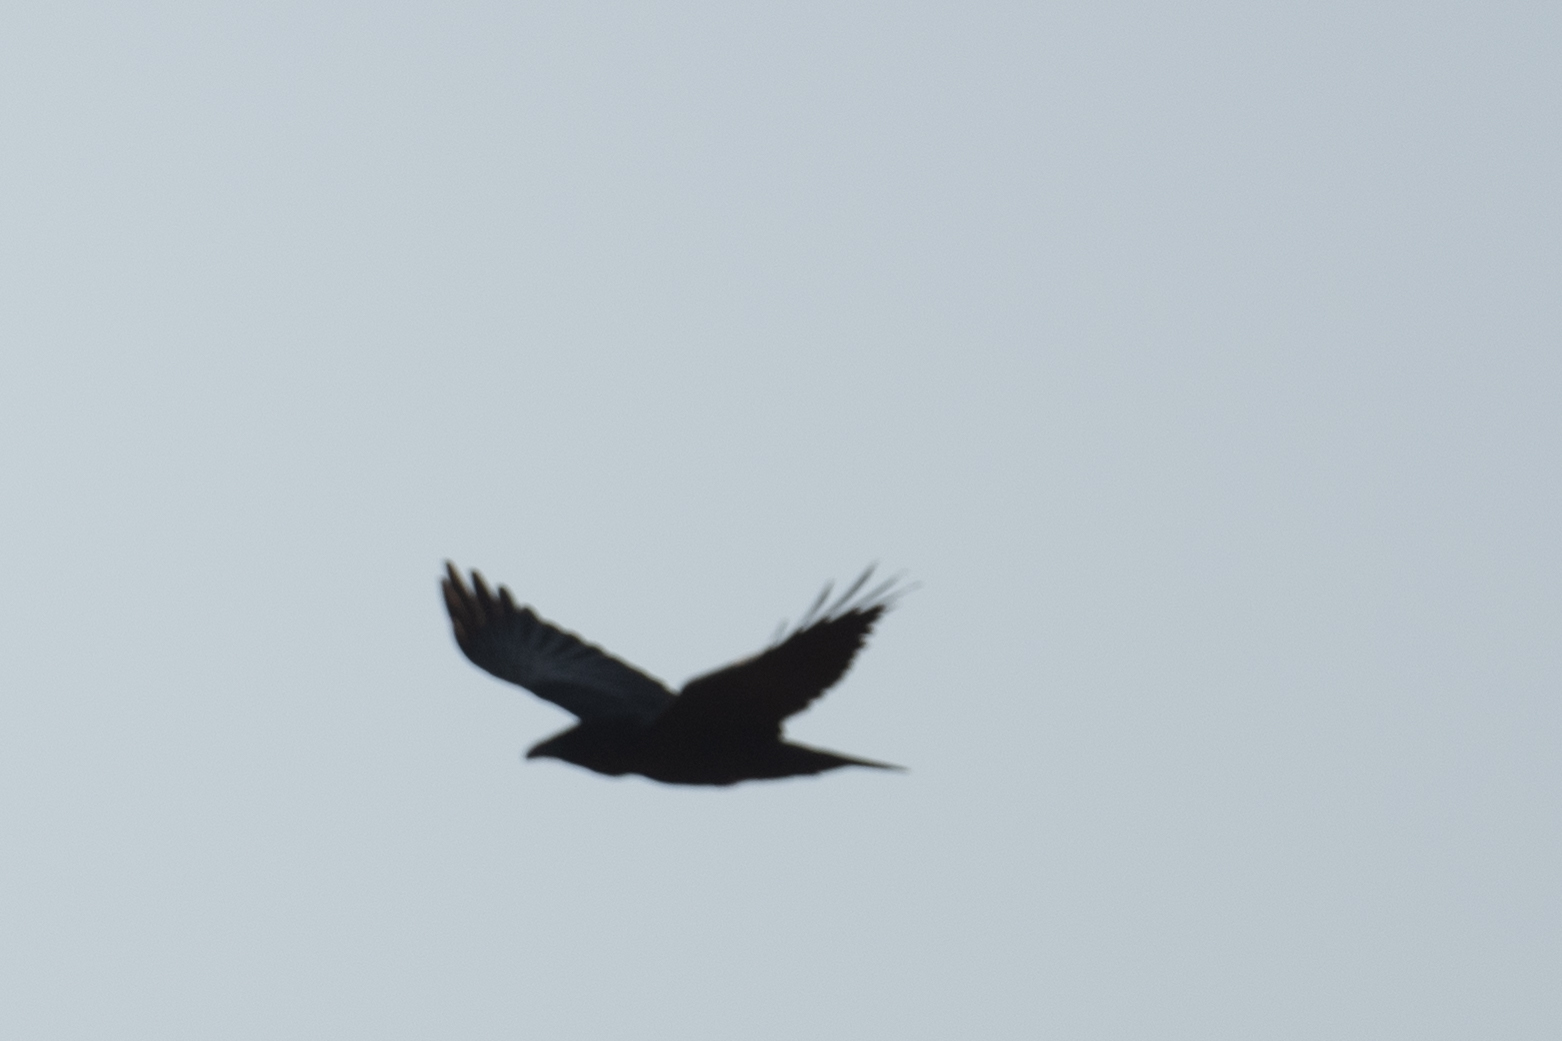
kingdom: Animalia
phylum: Chordata
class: Aves
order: Passeriformes
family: Corvidae
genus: Corvus
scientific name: Corvus corax
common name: Common raven
